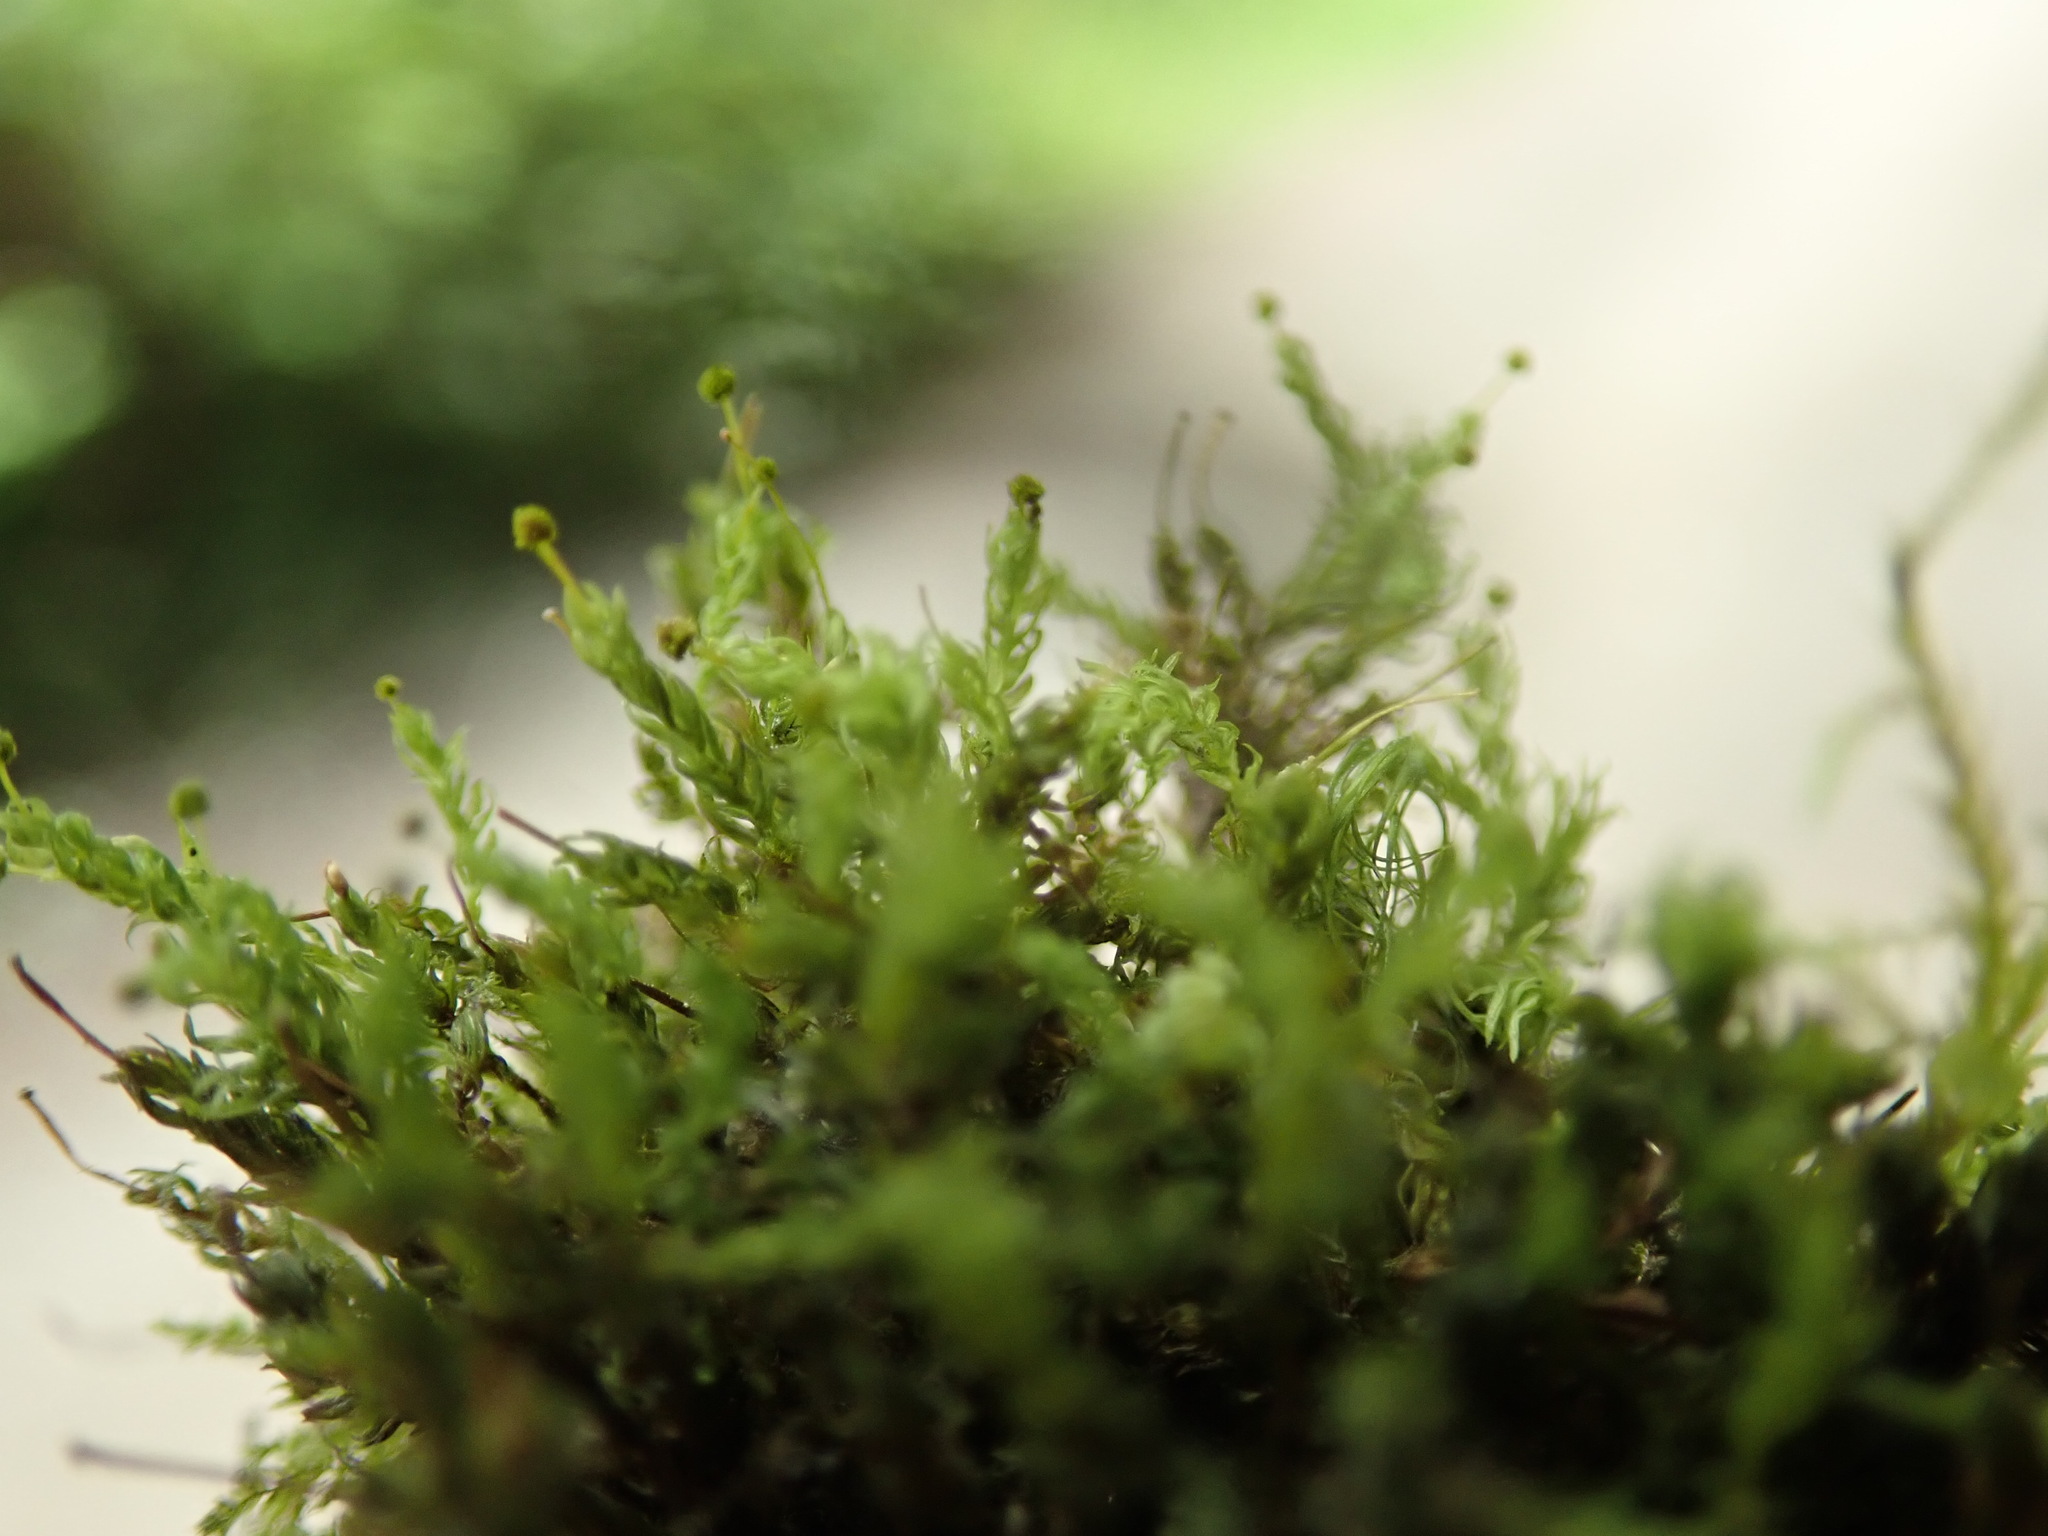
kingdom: Plantae
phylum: Bryophyta
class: Bryopsida
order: Aulacomniales
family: Aulacomniaceae
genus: Aulacomnium
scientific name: Aulacomnium androgynum
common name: Little groove moss
